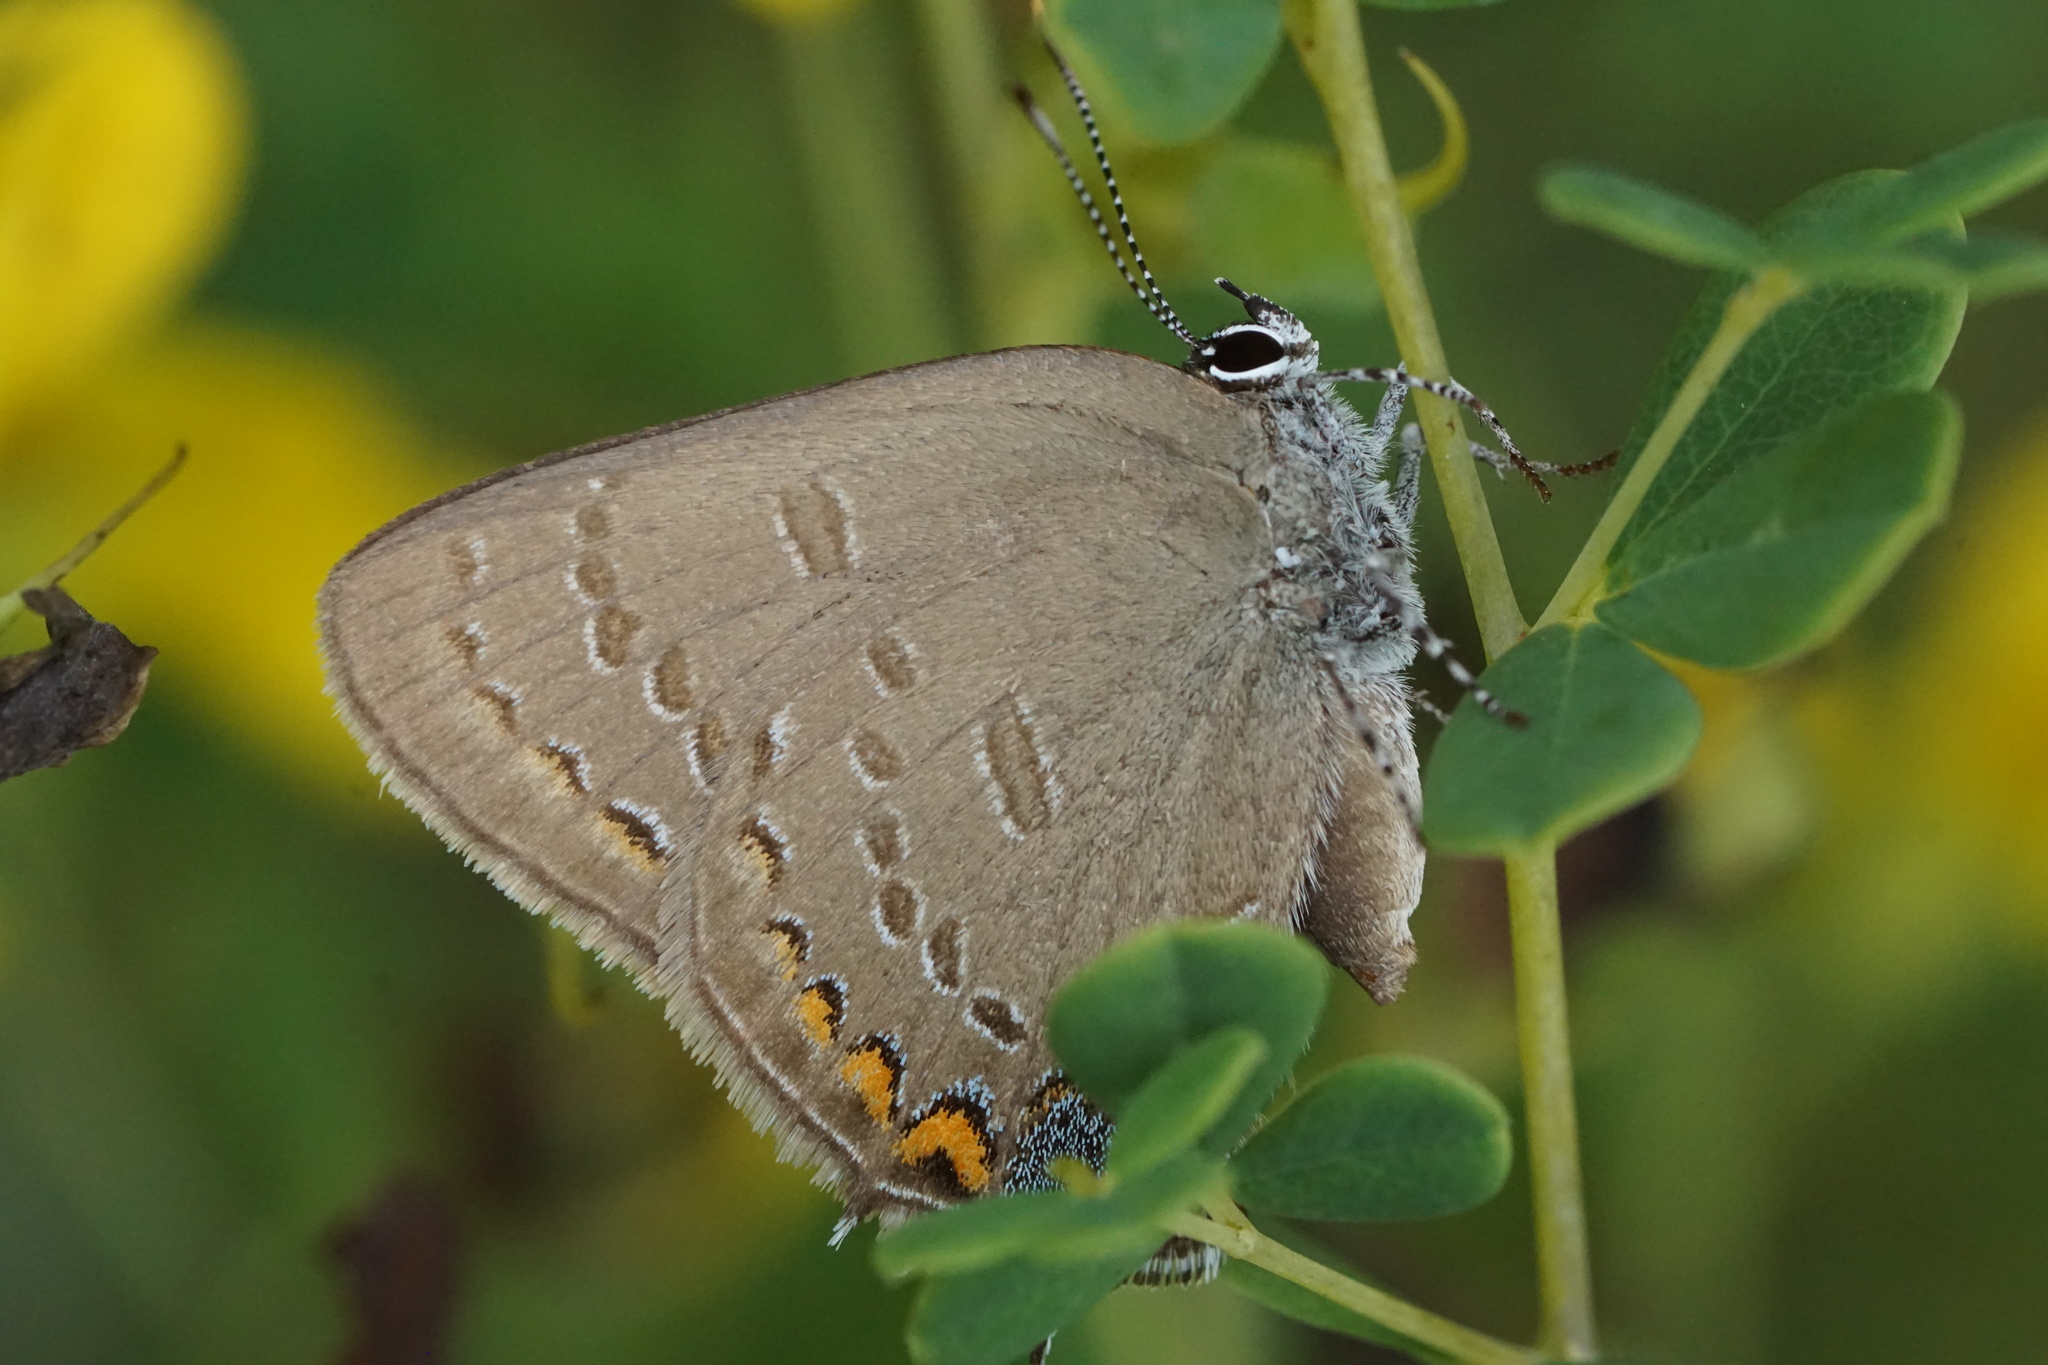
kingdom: Animalia
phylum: Arthropoda
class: Insecta
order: Lepidoptera
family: Lycaenidae
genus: Satyrium
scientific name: Satyrium edwardsii
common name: Edwards' hairstreak
